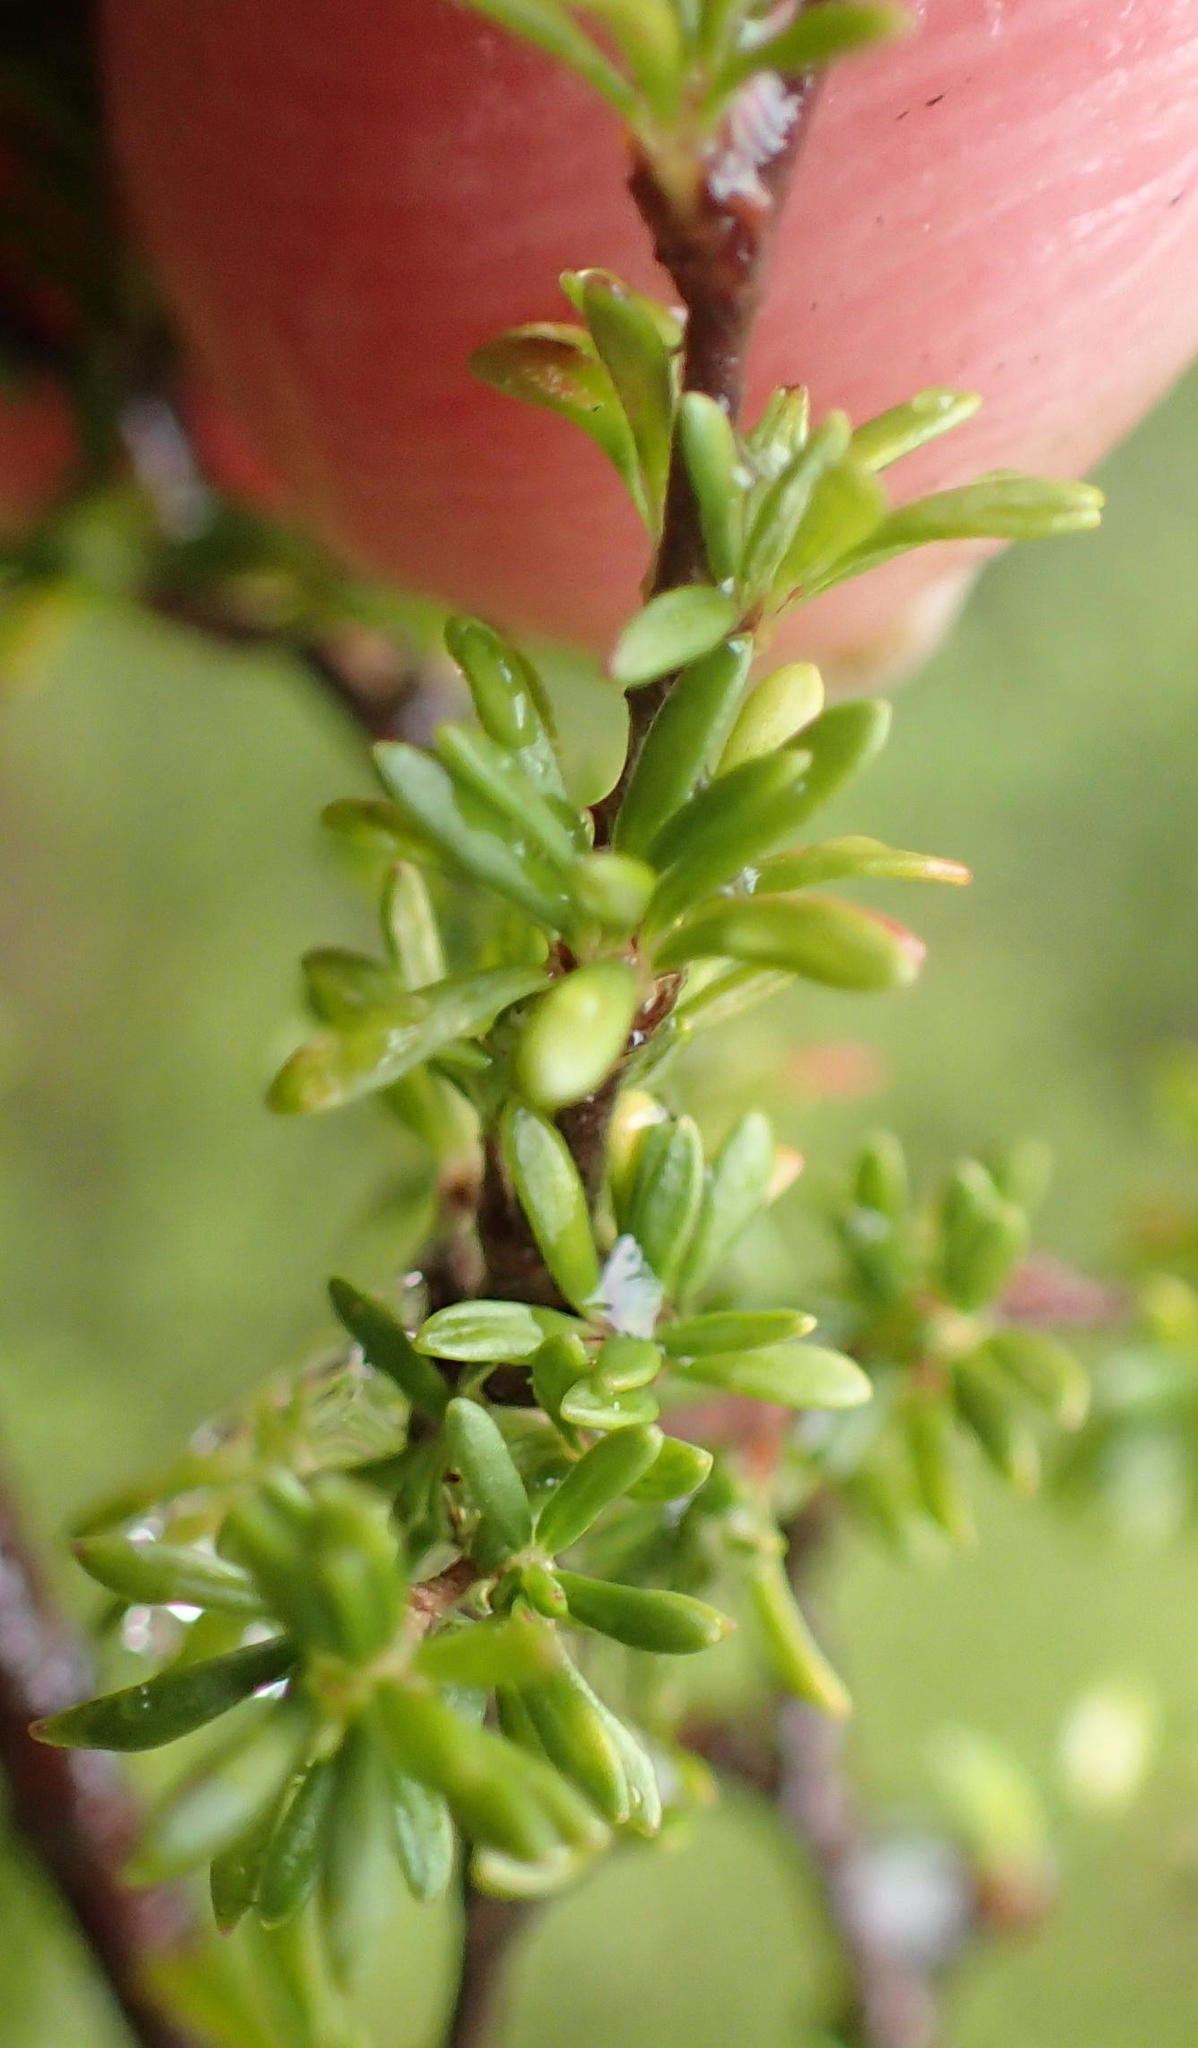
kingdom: Plantae
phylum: Tracheophyta
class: Magnoliopsida
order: Rosales
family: Rosaceae
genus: Cliffortia
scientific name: Cliffortia serpyllifolia
